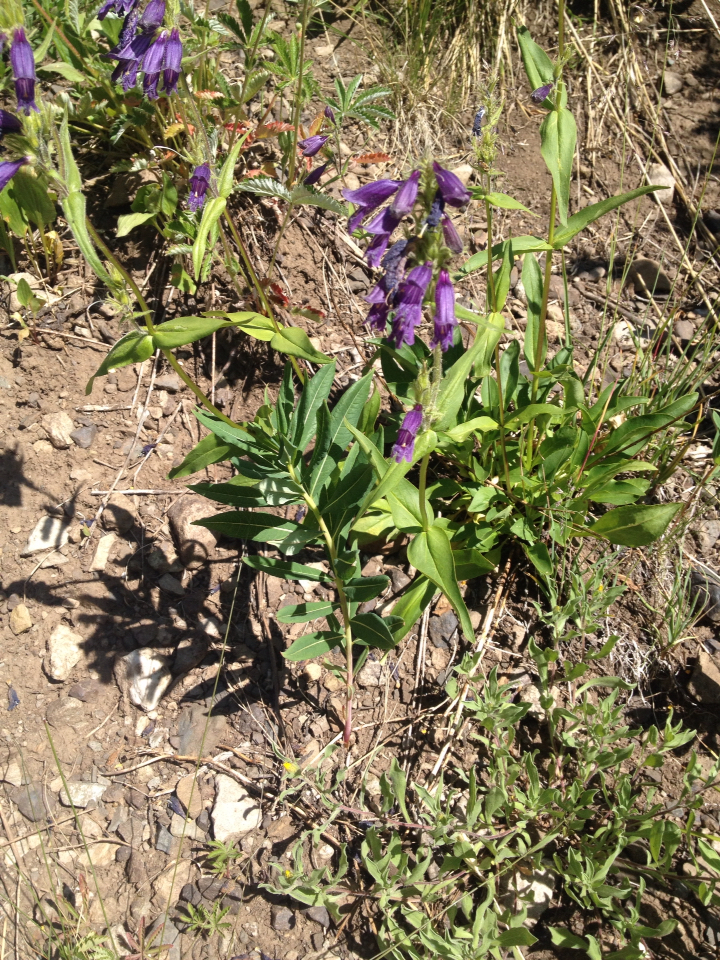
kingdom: Plantae
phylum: Tracheophyta
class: Magnoliopsida
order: Lamiales
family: Plantaginaceae
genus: Penstemon
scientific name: Penstemon whippleanus
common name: Whipple's penstemon
